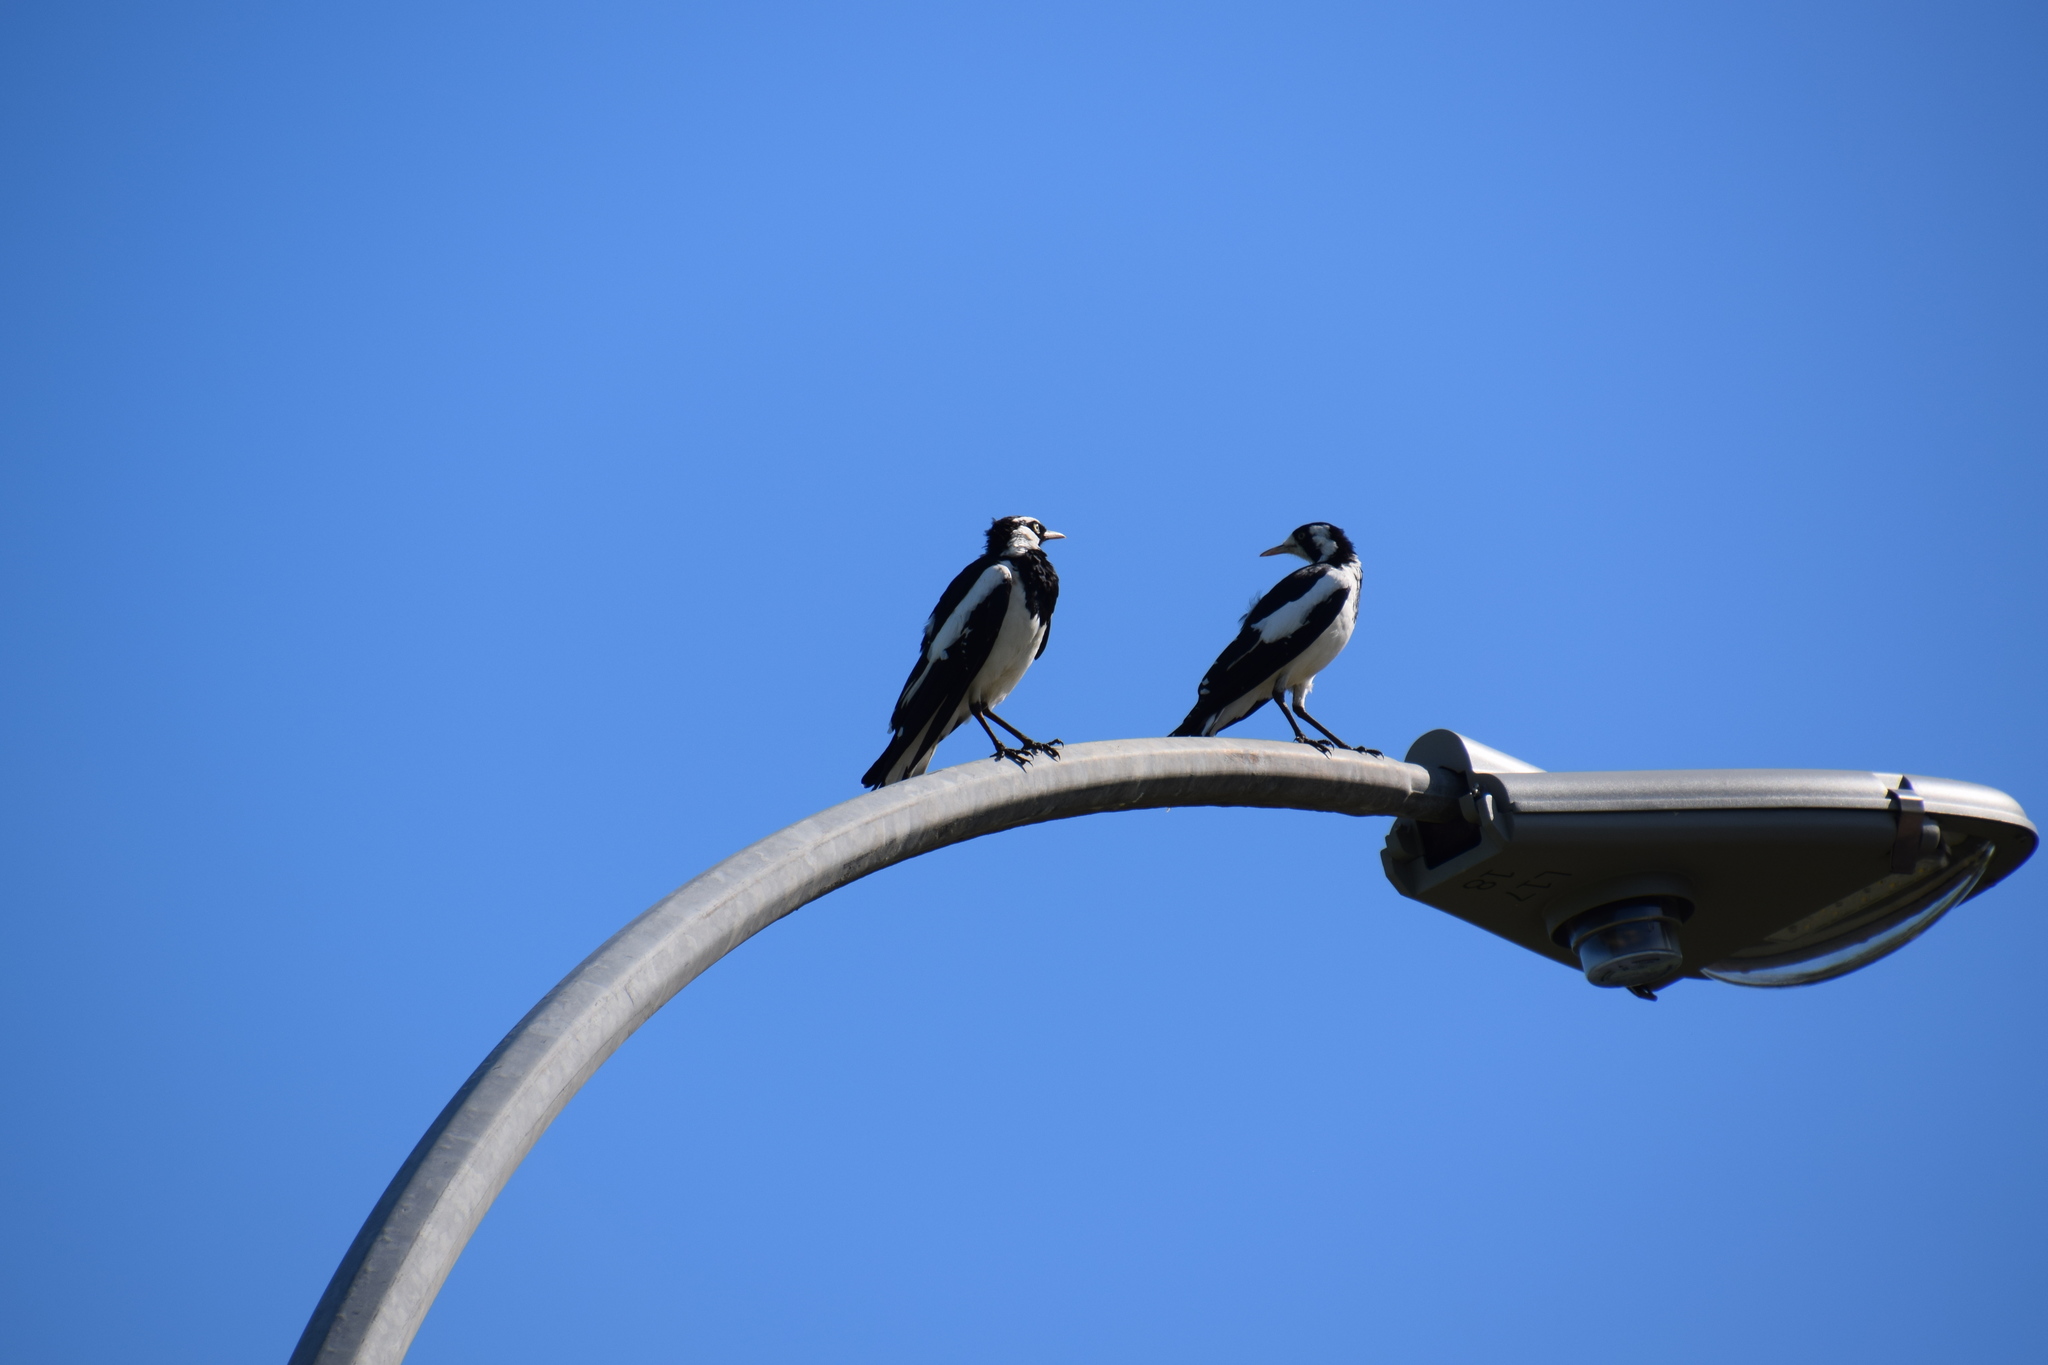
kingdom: Animalia
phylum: Chordata
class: Aves
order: Passeriformes
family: Monarchidae
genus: Grallina
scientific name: Grallina cyanoleuca
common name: Magpie-lark
